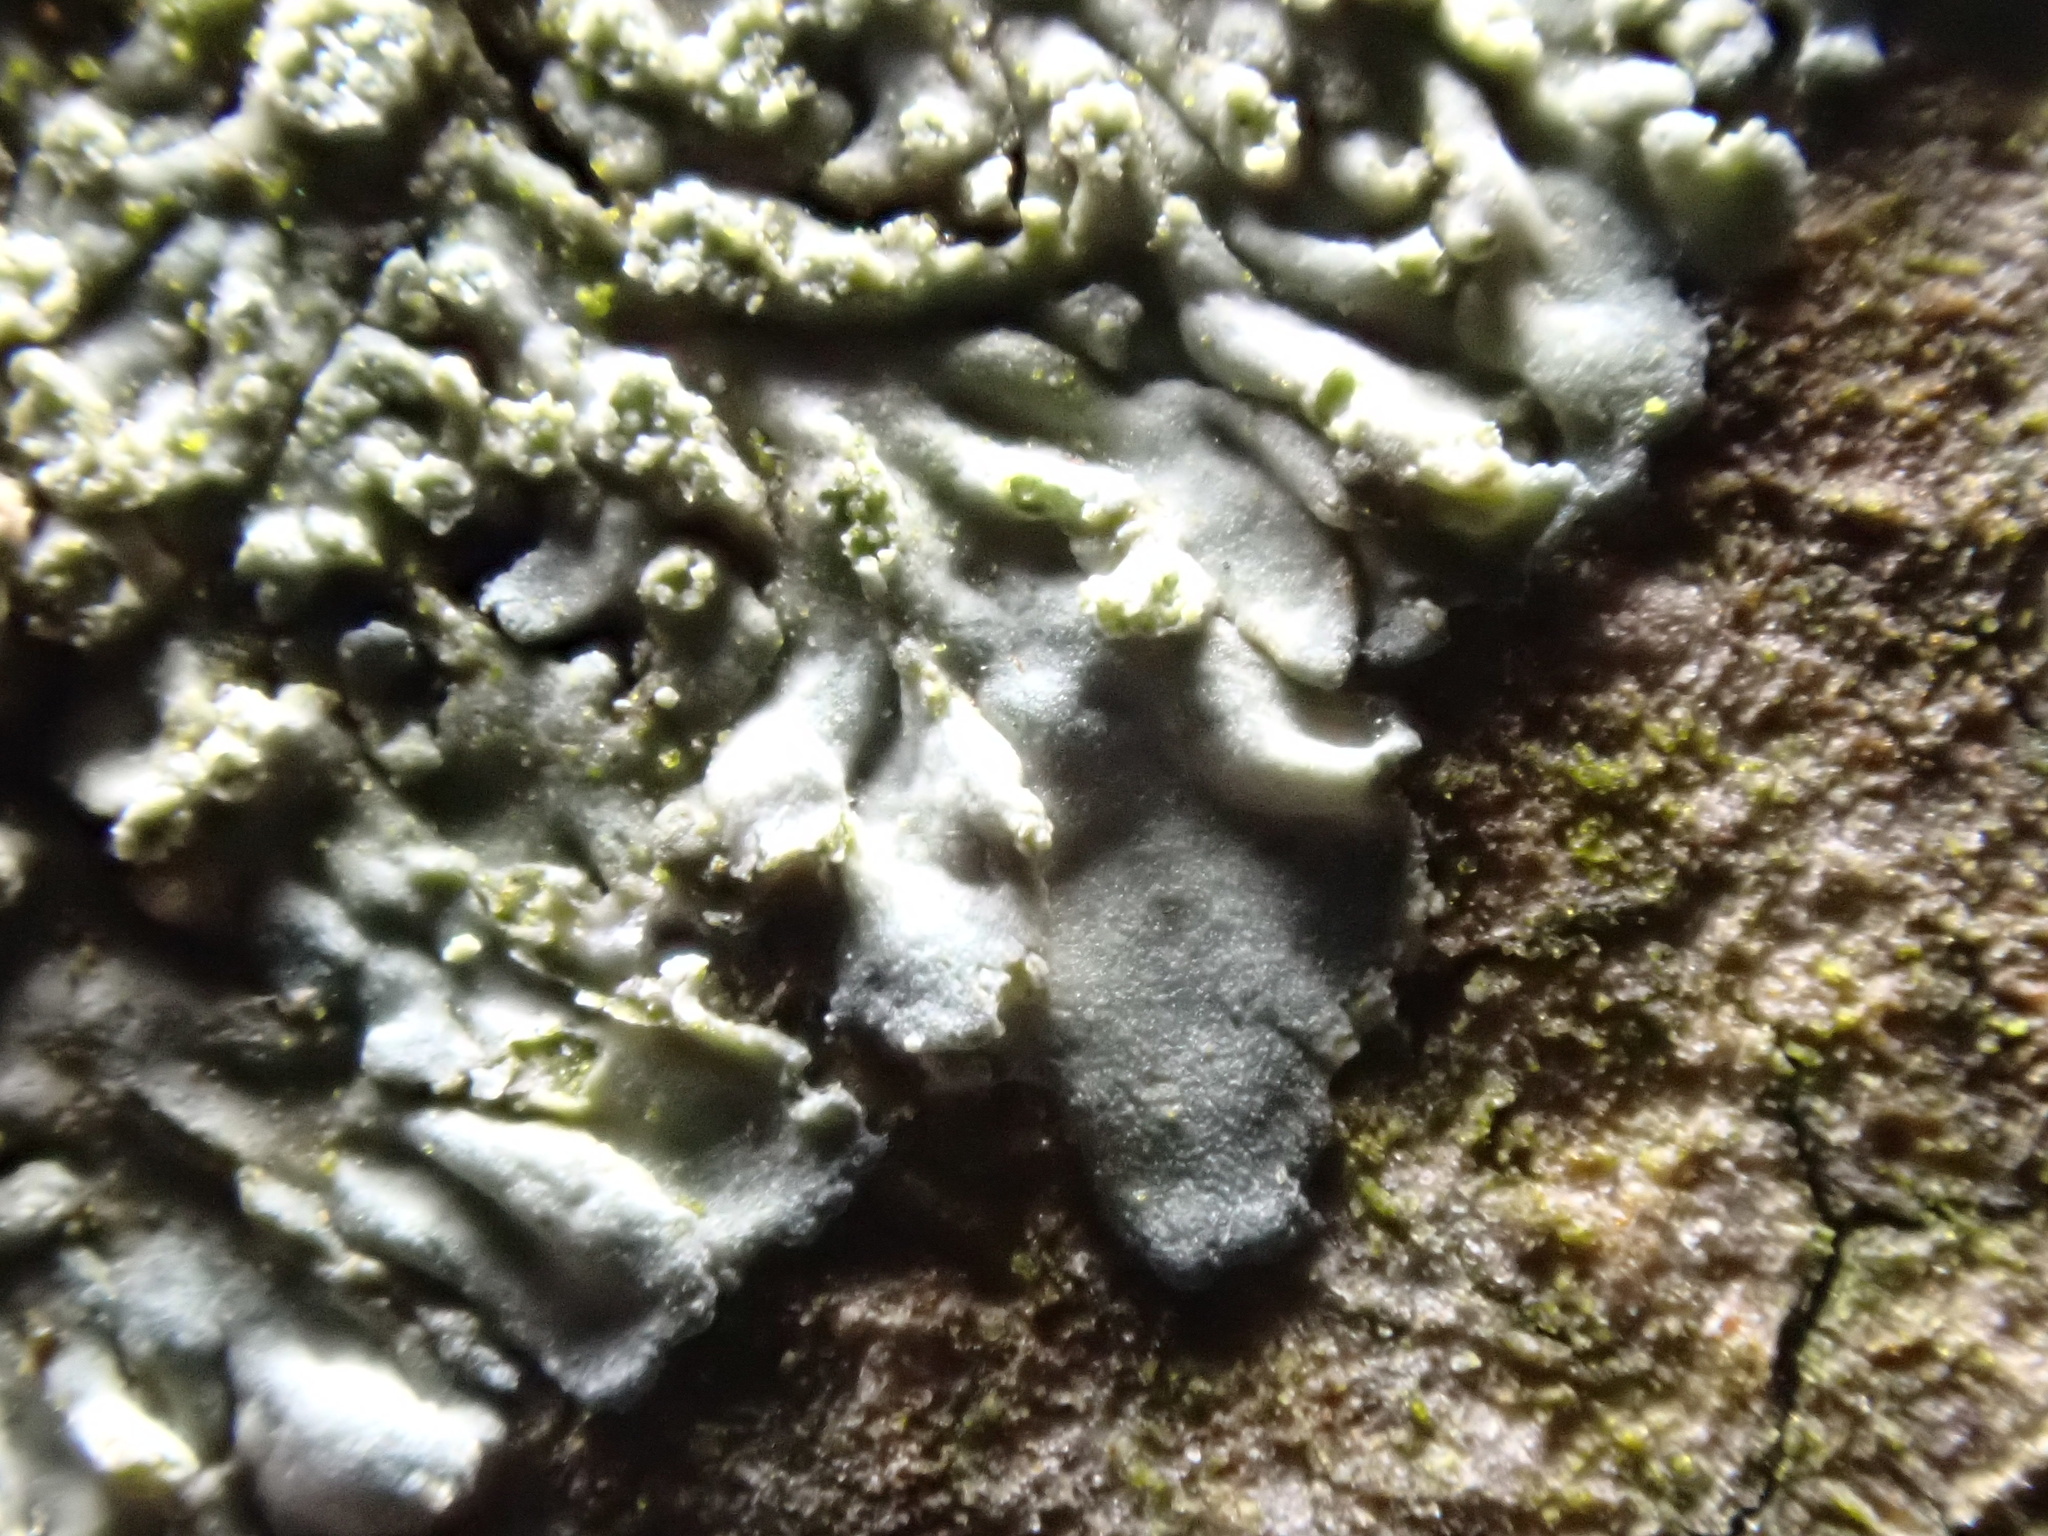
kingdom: Fungi
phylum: Ascomycota
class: Lecanoromycetes
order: Caliciales
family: Physciaceae
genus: Hyperphyscia
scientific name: Hyperphyscia adglutinata
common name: Grainy shadow-crust lichen
